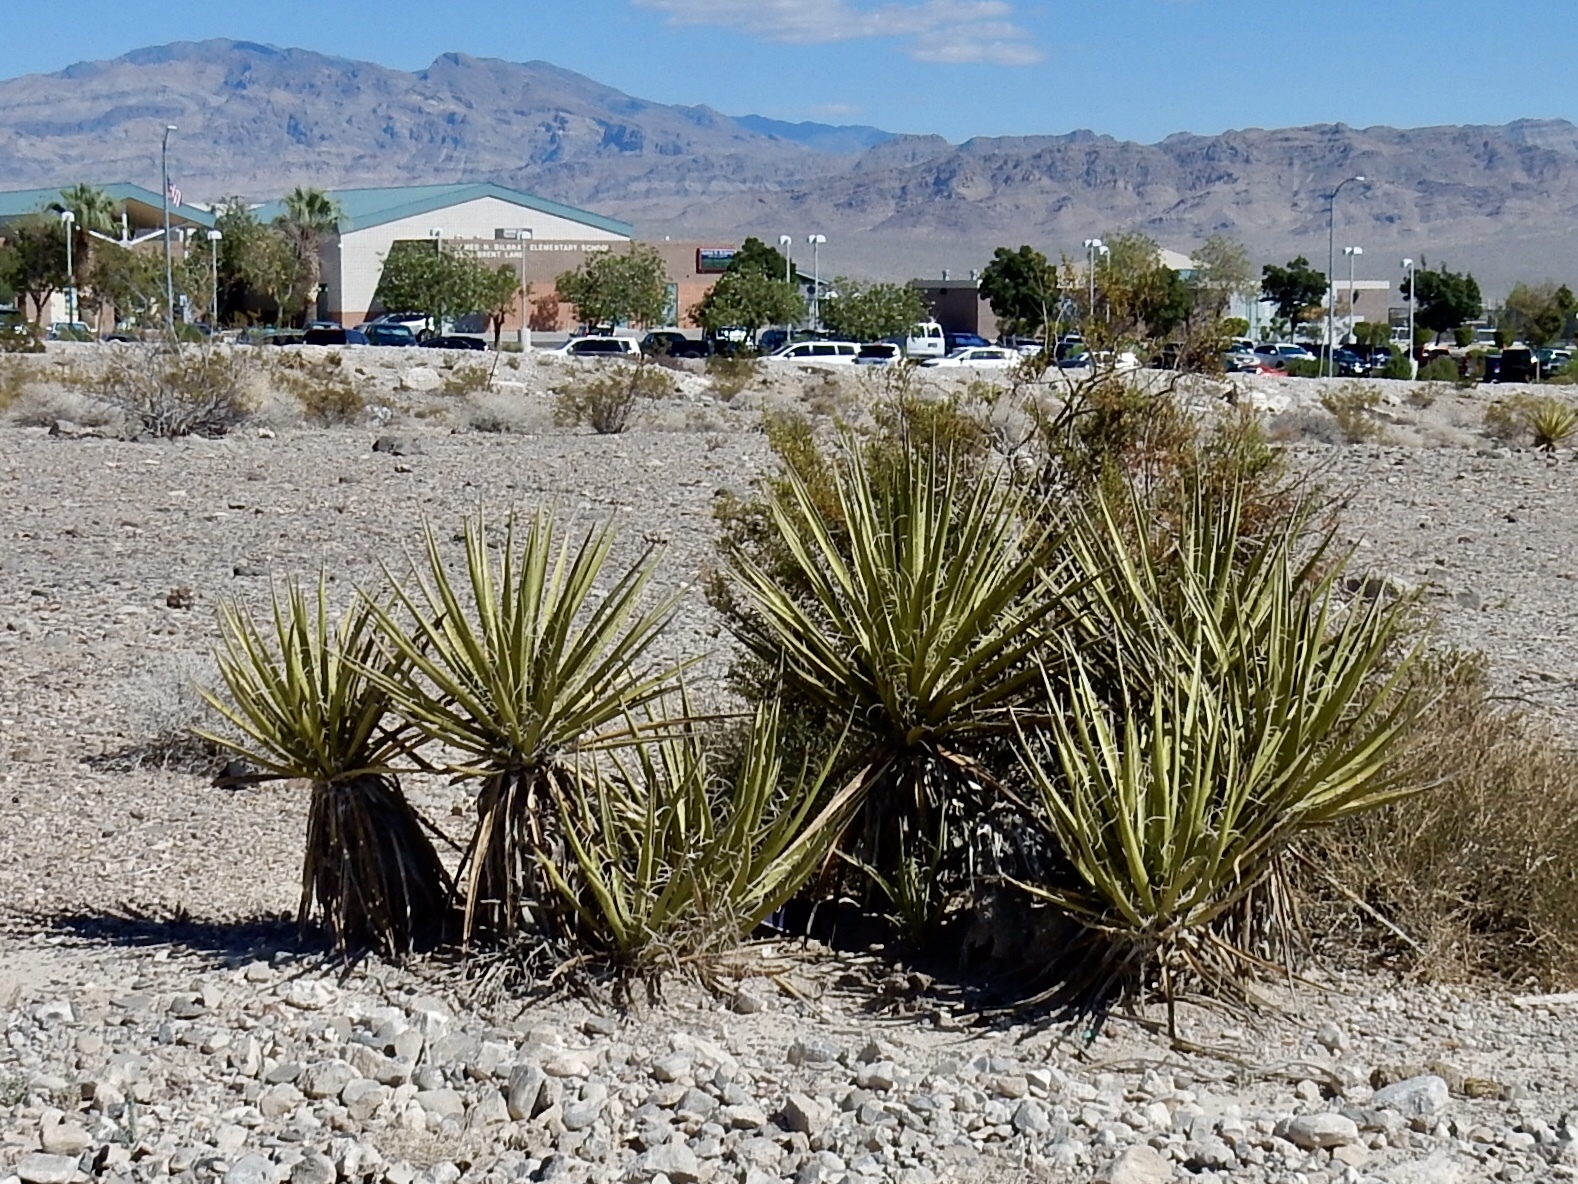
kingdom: Plantae
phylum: Tracheophyta
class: Liliopsida
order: Asparagales
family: Asparagaceae
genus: Yucca
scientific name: Yucca schidigera
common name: Mojave yucca
